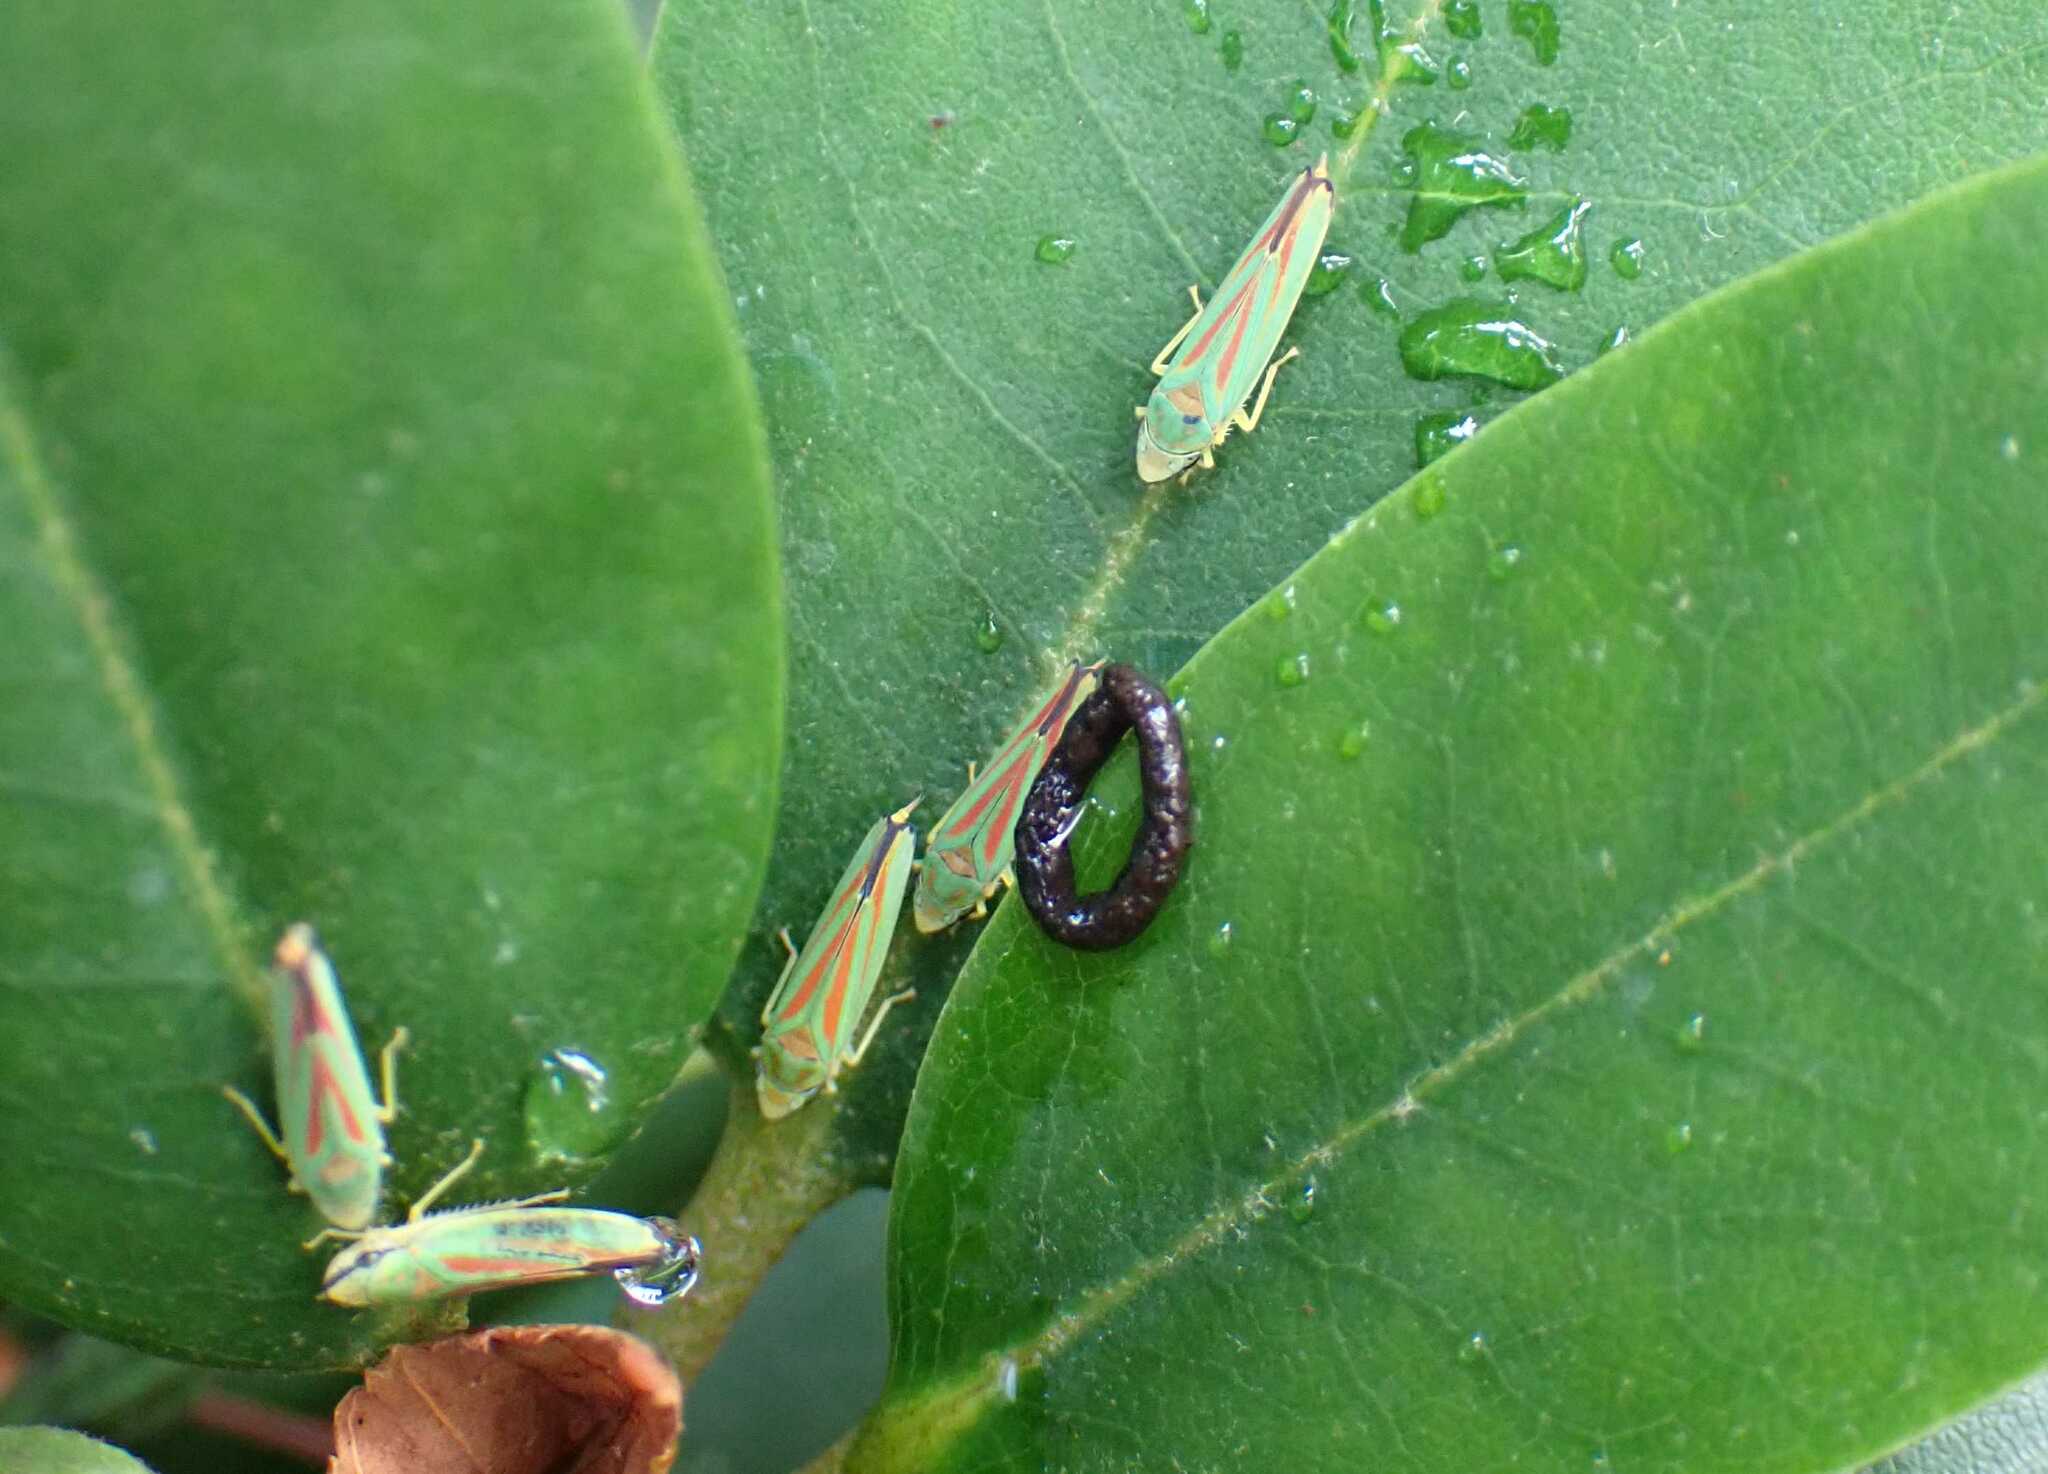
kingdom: Animalia
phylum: Arthropoda
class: Insecta
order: Hemiptera
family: Cicadellidae
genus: Graphocephala
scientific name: Graphocephala fennahi
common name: Rhododendron leafhopper
